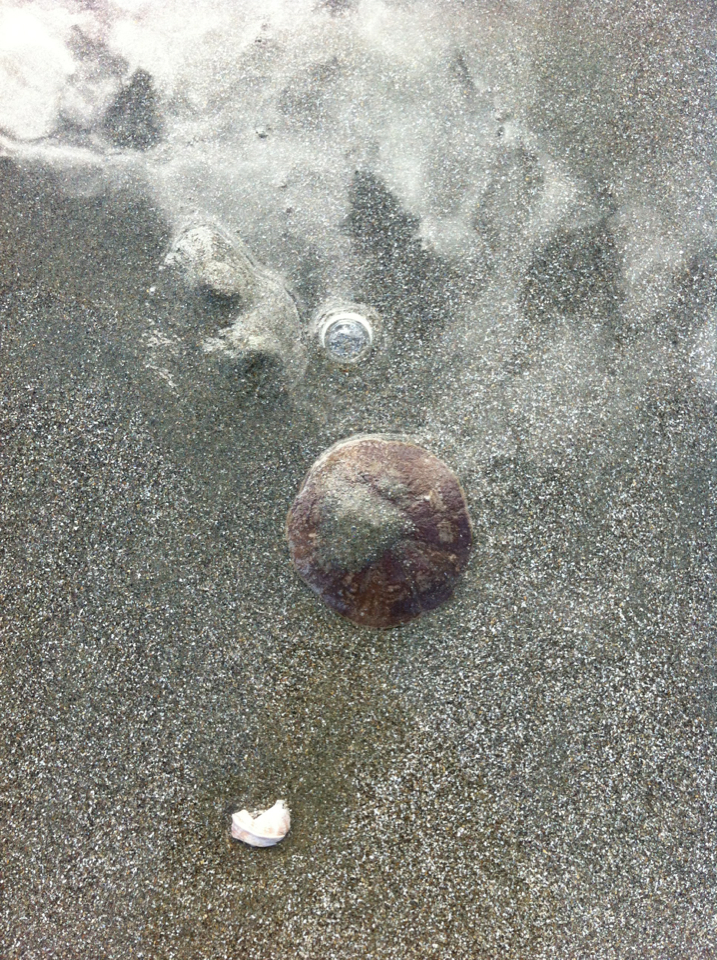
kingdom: Animalia
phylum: Echinodermata
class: Echinoidea
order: Clypeasteroida
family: Clypeasteridae
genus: Fellaster
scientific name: Fellaster zelandiae
